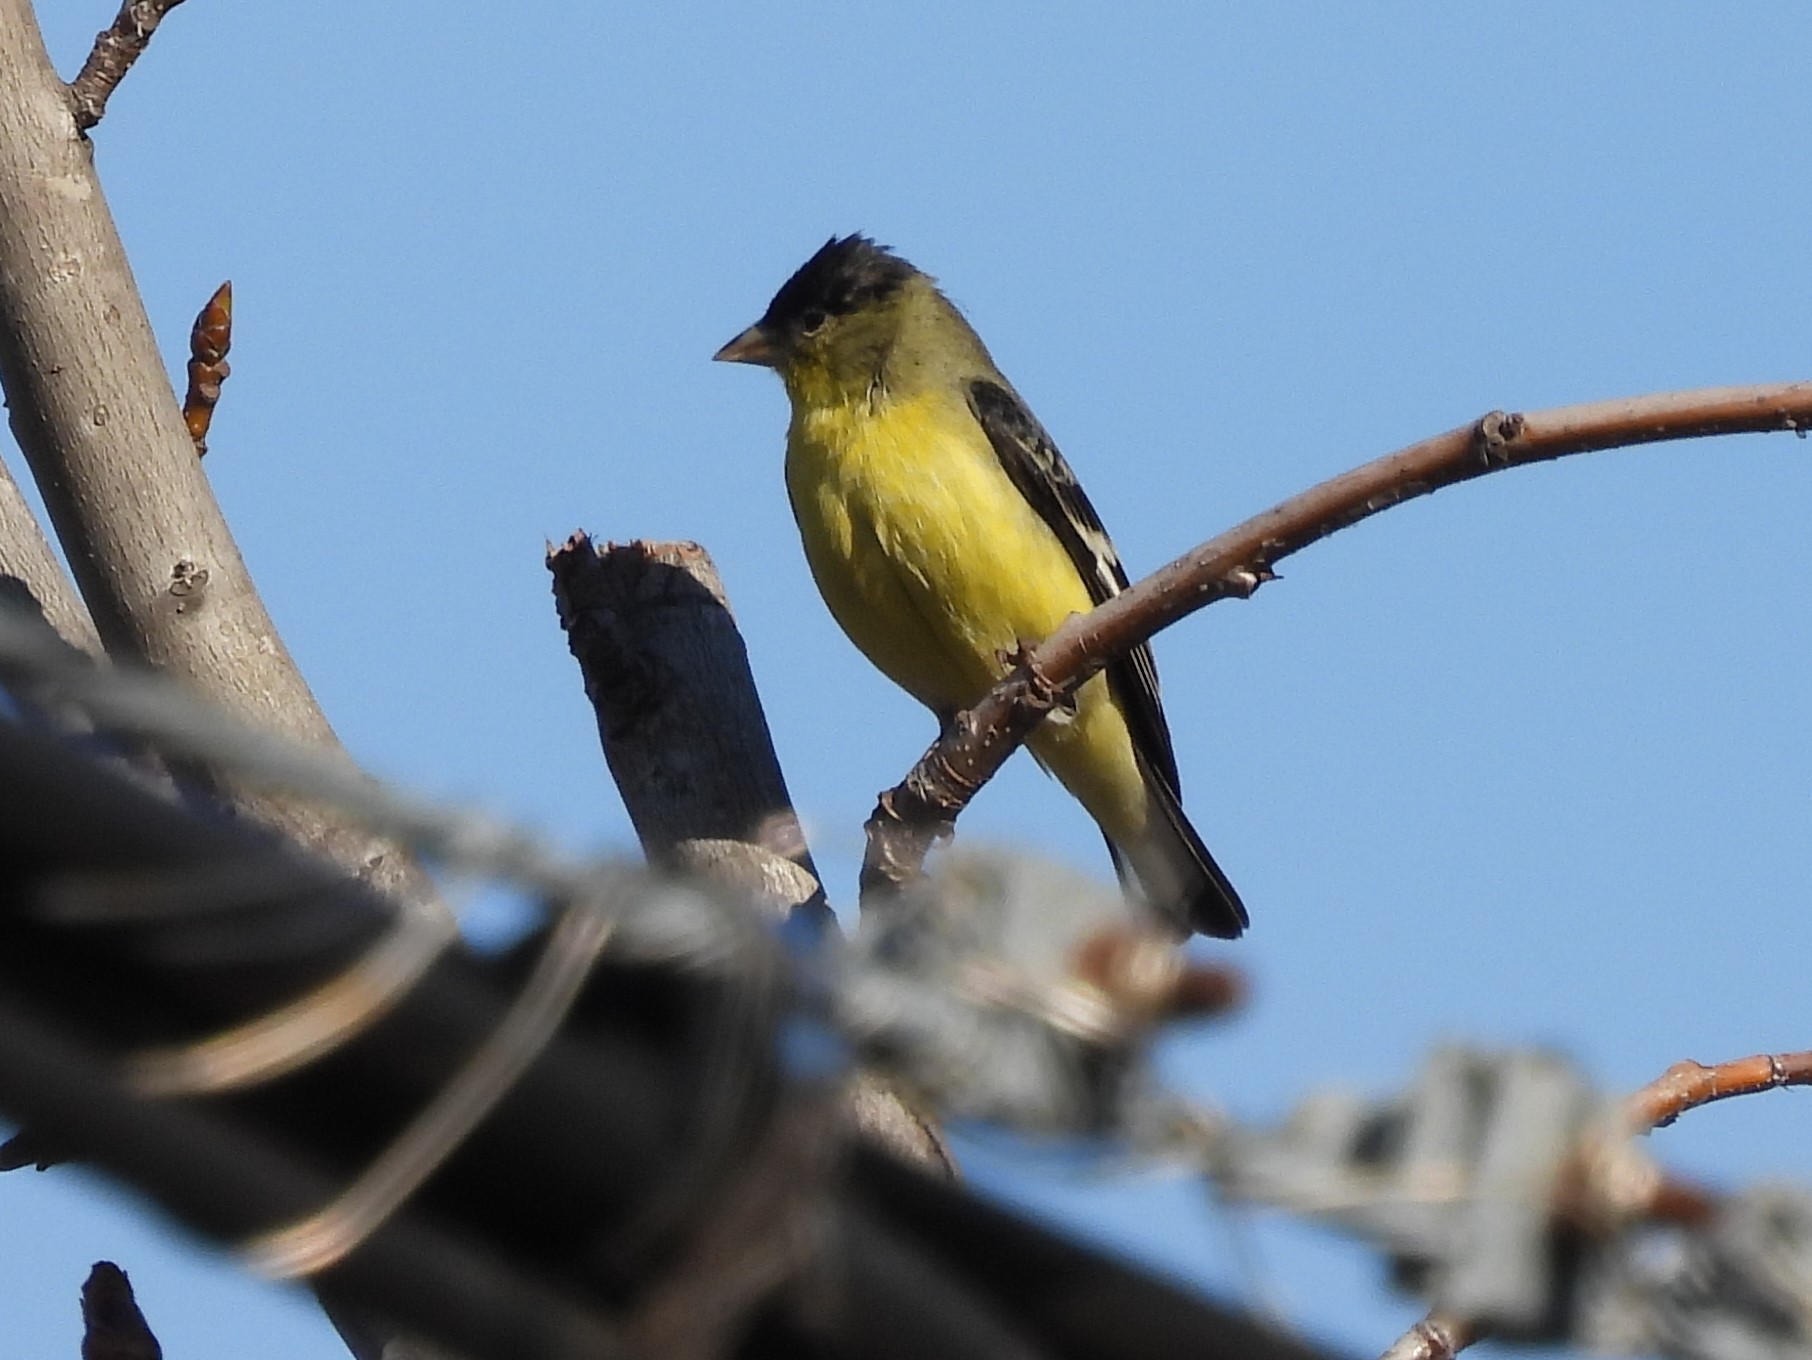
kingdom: Animalia
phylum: Chordata
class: Aves
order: Passeriformes
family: Fringillidae
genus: Spinus
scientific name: Spinus psaltria
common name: Lesser goldfinch
